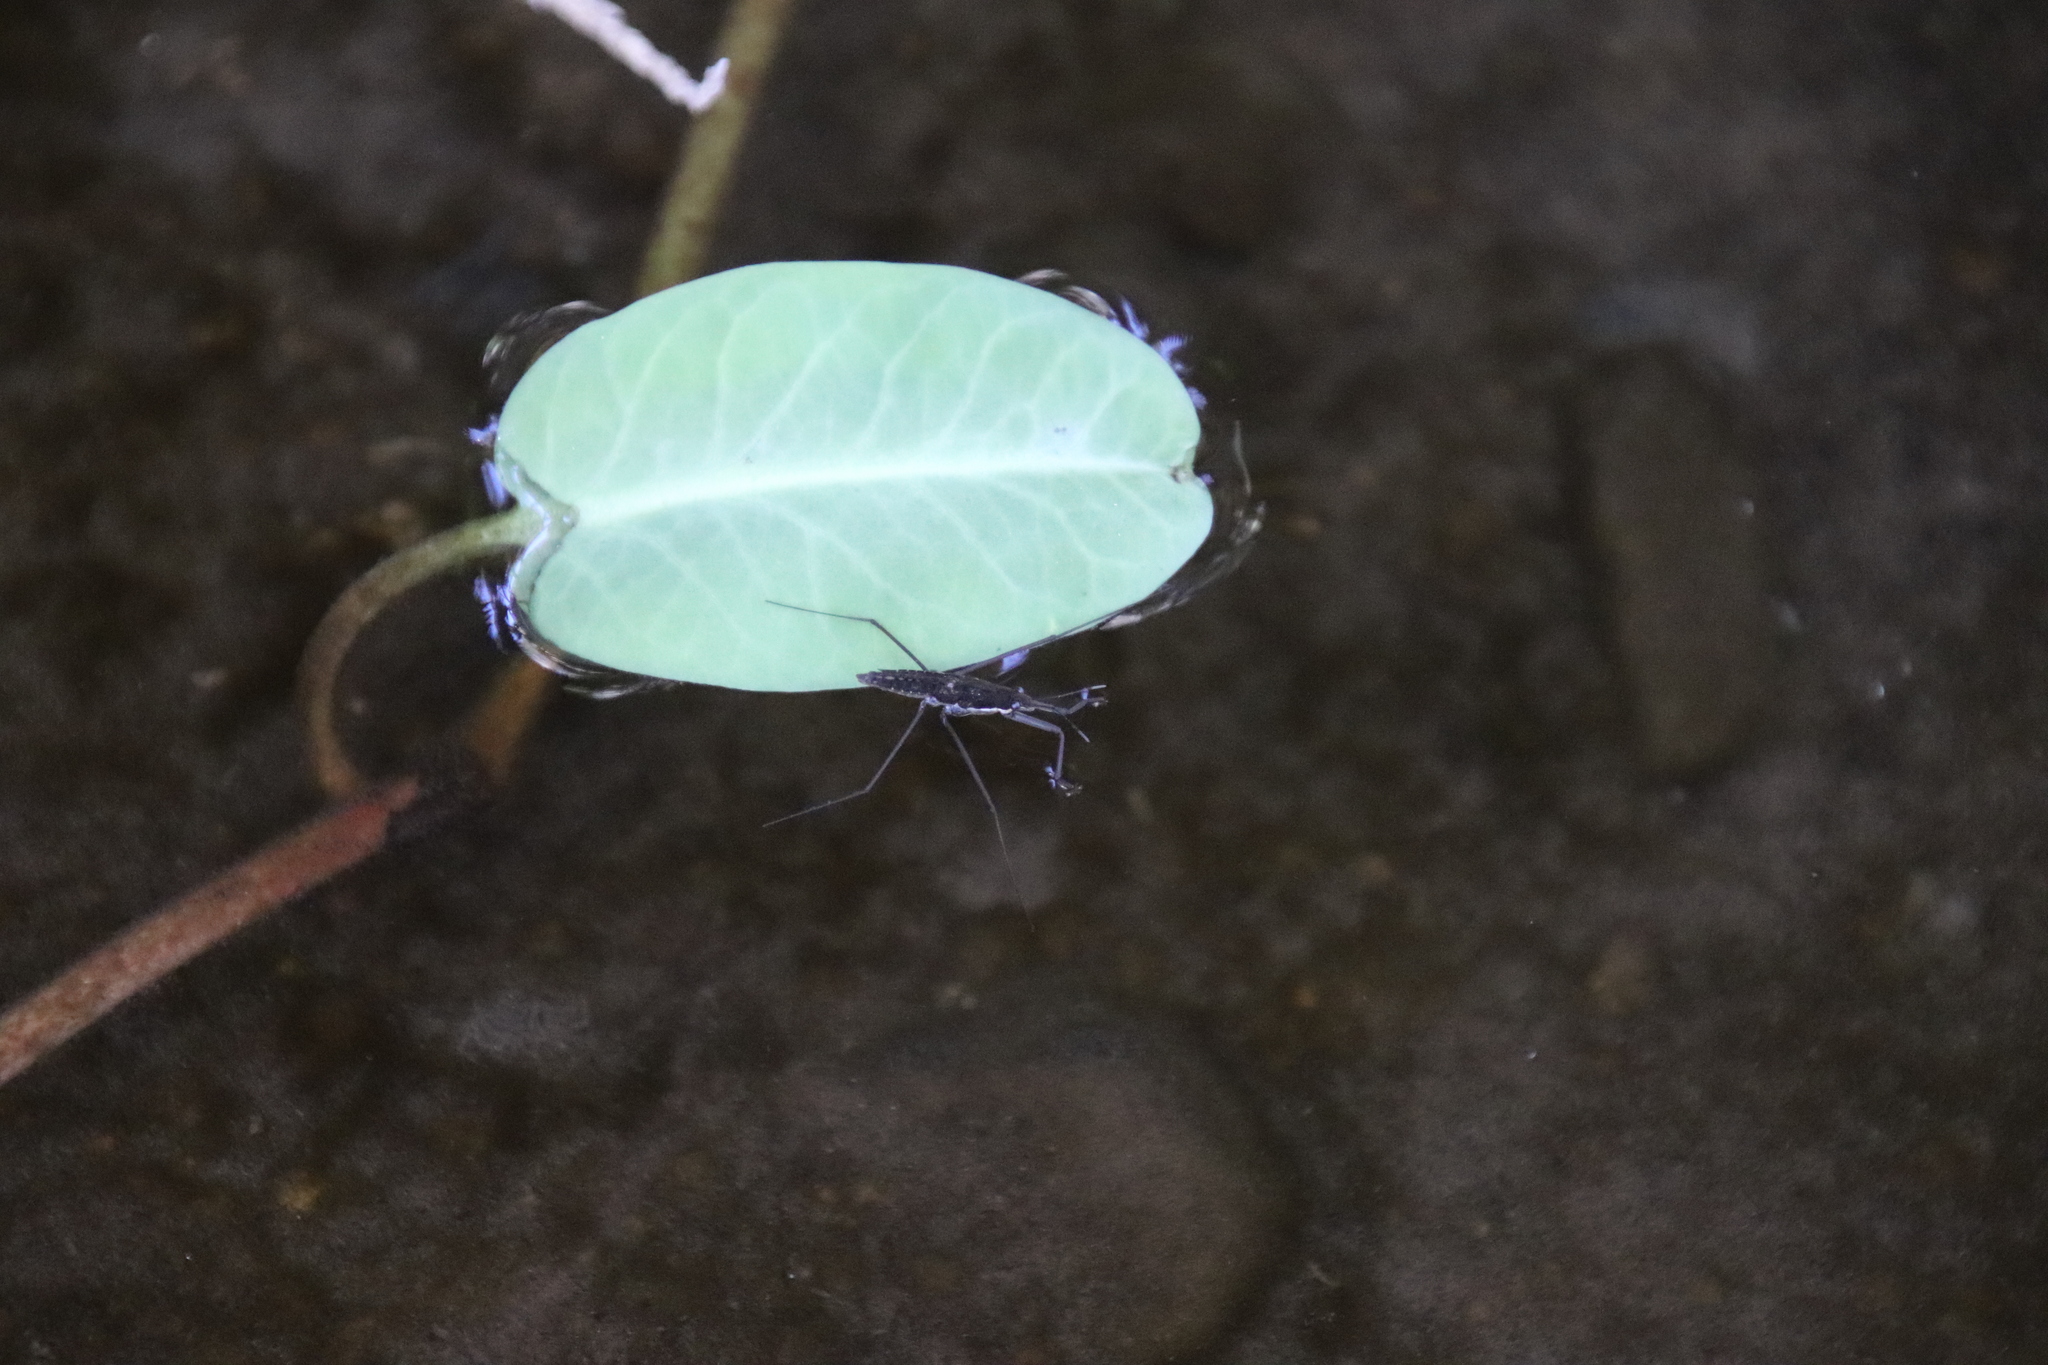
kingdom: Animalia
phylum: Arthropoda
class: Insecta
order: Hemiptera
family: Gerridae
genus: Aquarius
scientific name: Aquarius remigis
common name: Common water strider
